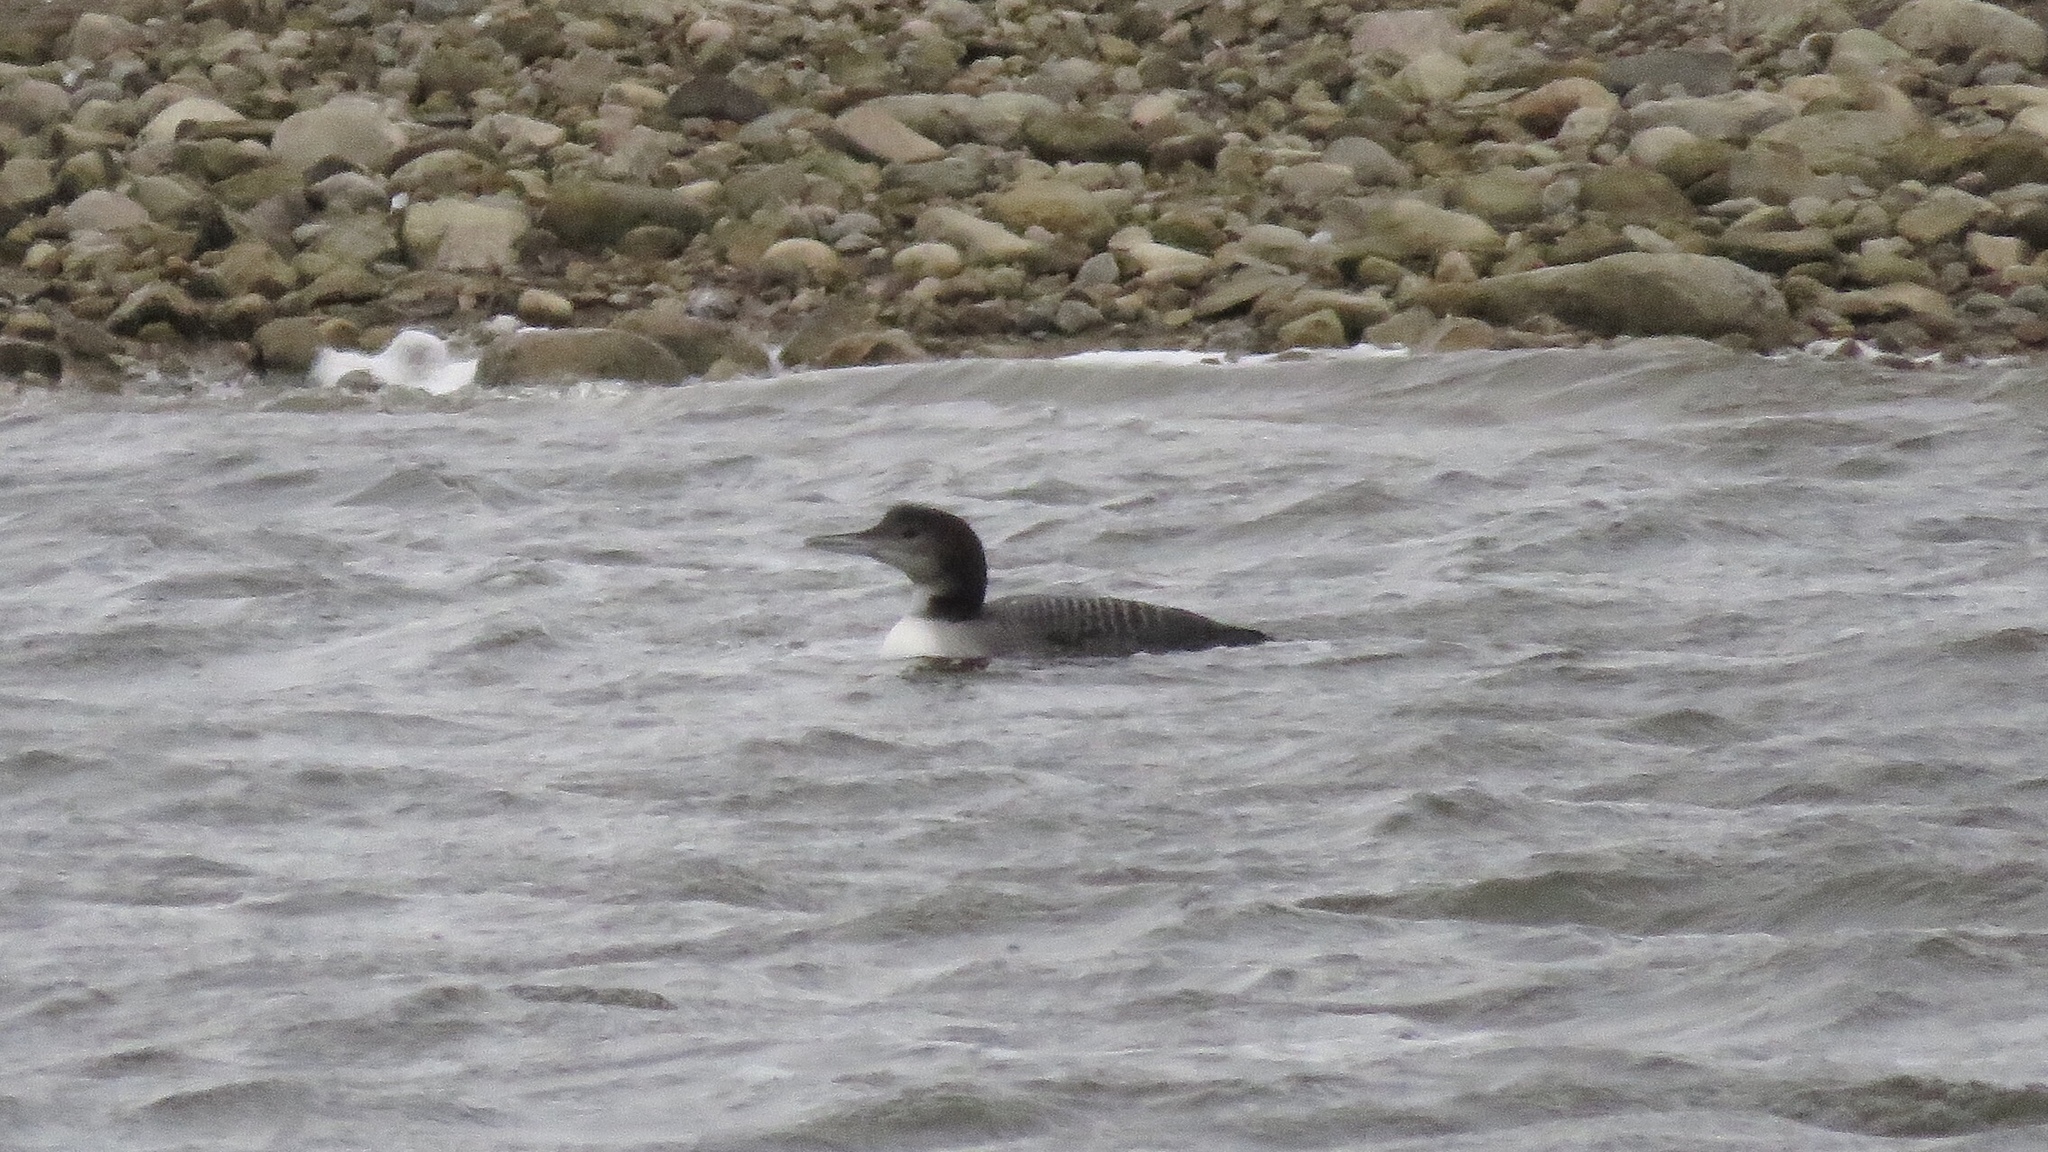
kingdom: Animalia
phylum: Chordata
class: Aves
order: Gaviiformes
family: Gaviidae
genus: Gavia
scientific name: Gavia immer
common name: Common loon
